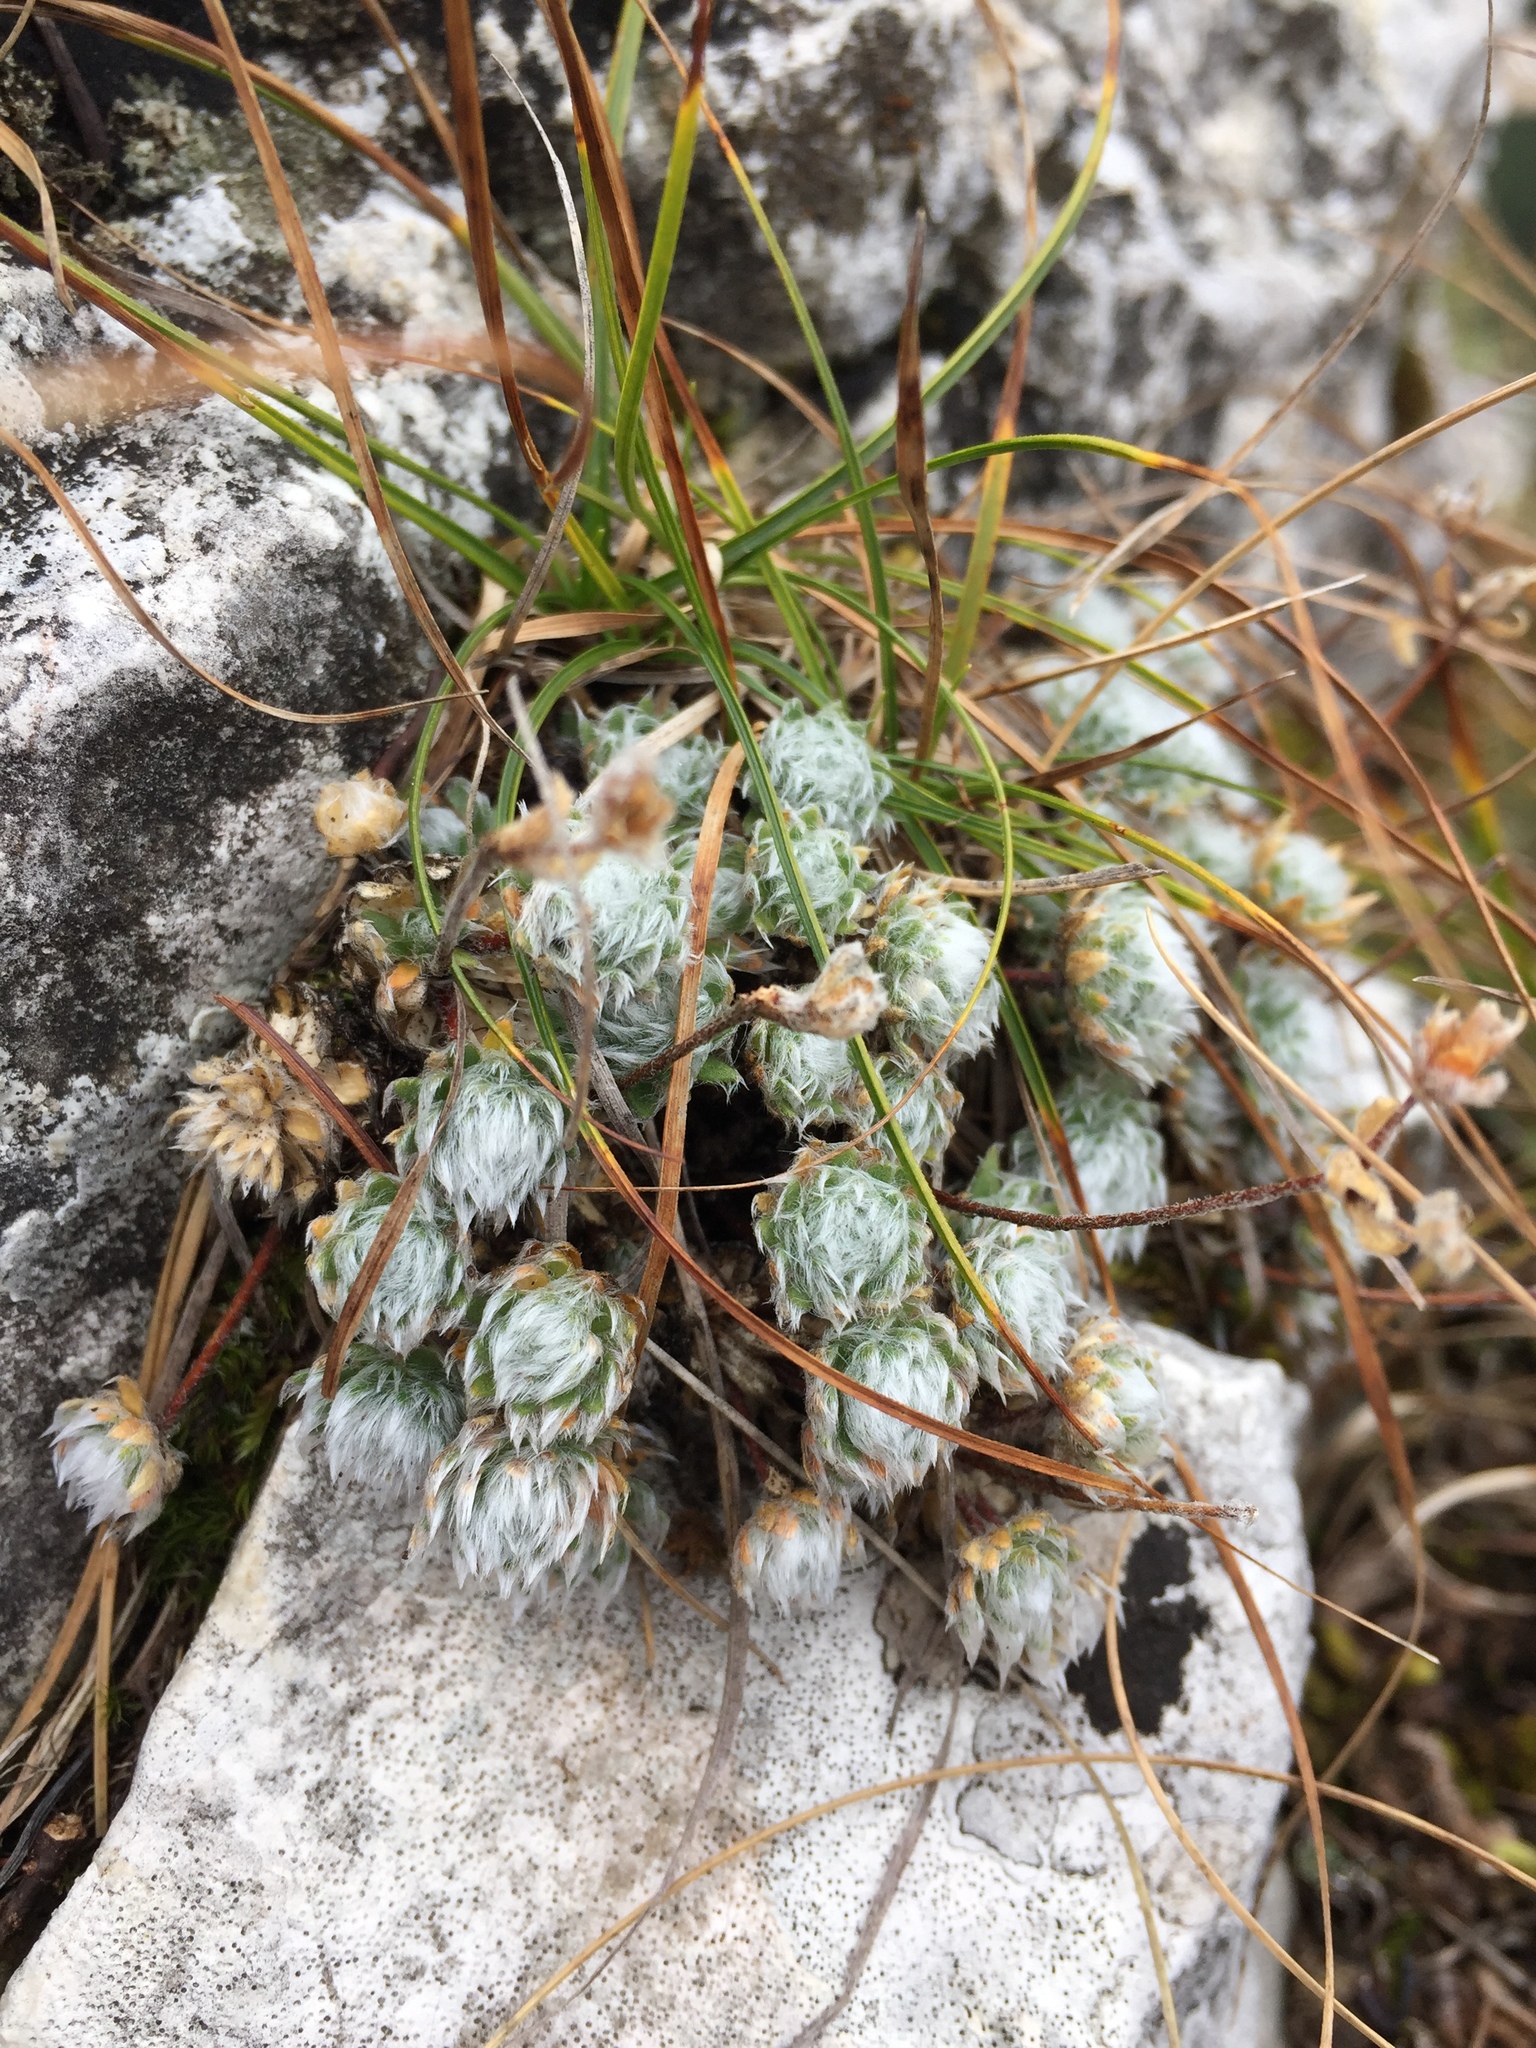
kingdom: Plantae
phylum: Tracheophyta
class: Magnoliopsida
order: Ericales
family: Primulaceae
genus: Androsace
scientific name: Androsace villosa
